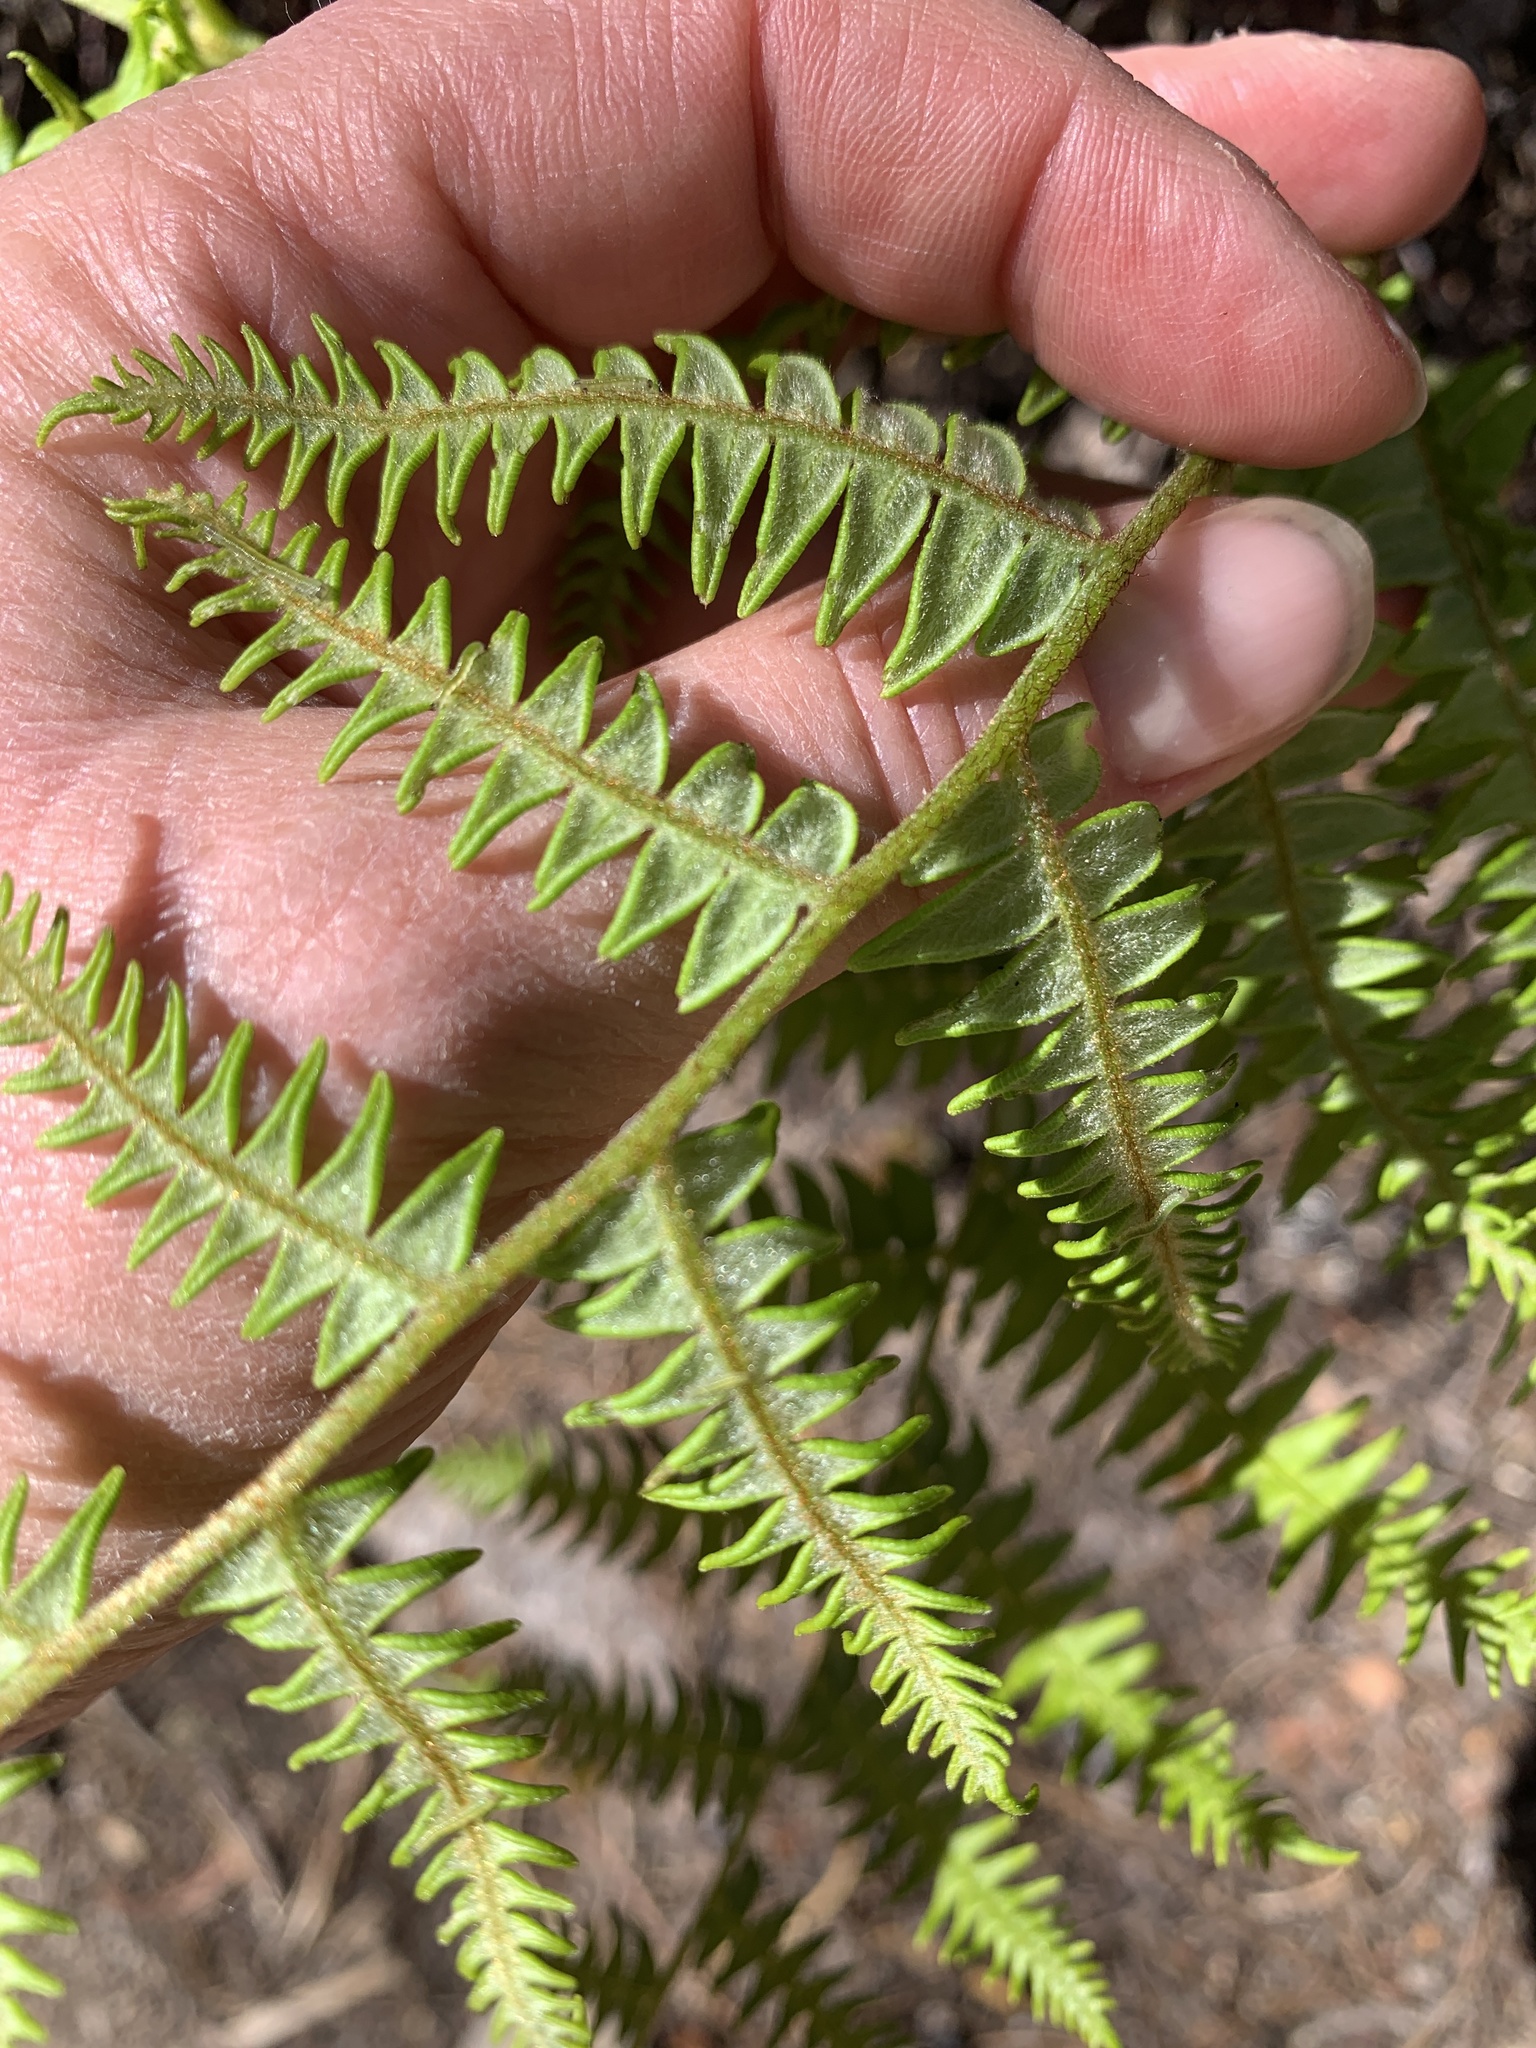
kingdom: Plantae
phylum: Tracheophyta
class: Polypodiopsida
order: Polypodiales
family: Dennstaedtiaceae
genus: Pteridium
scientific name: Pteridium aquilinum
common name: Bracken
